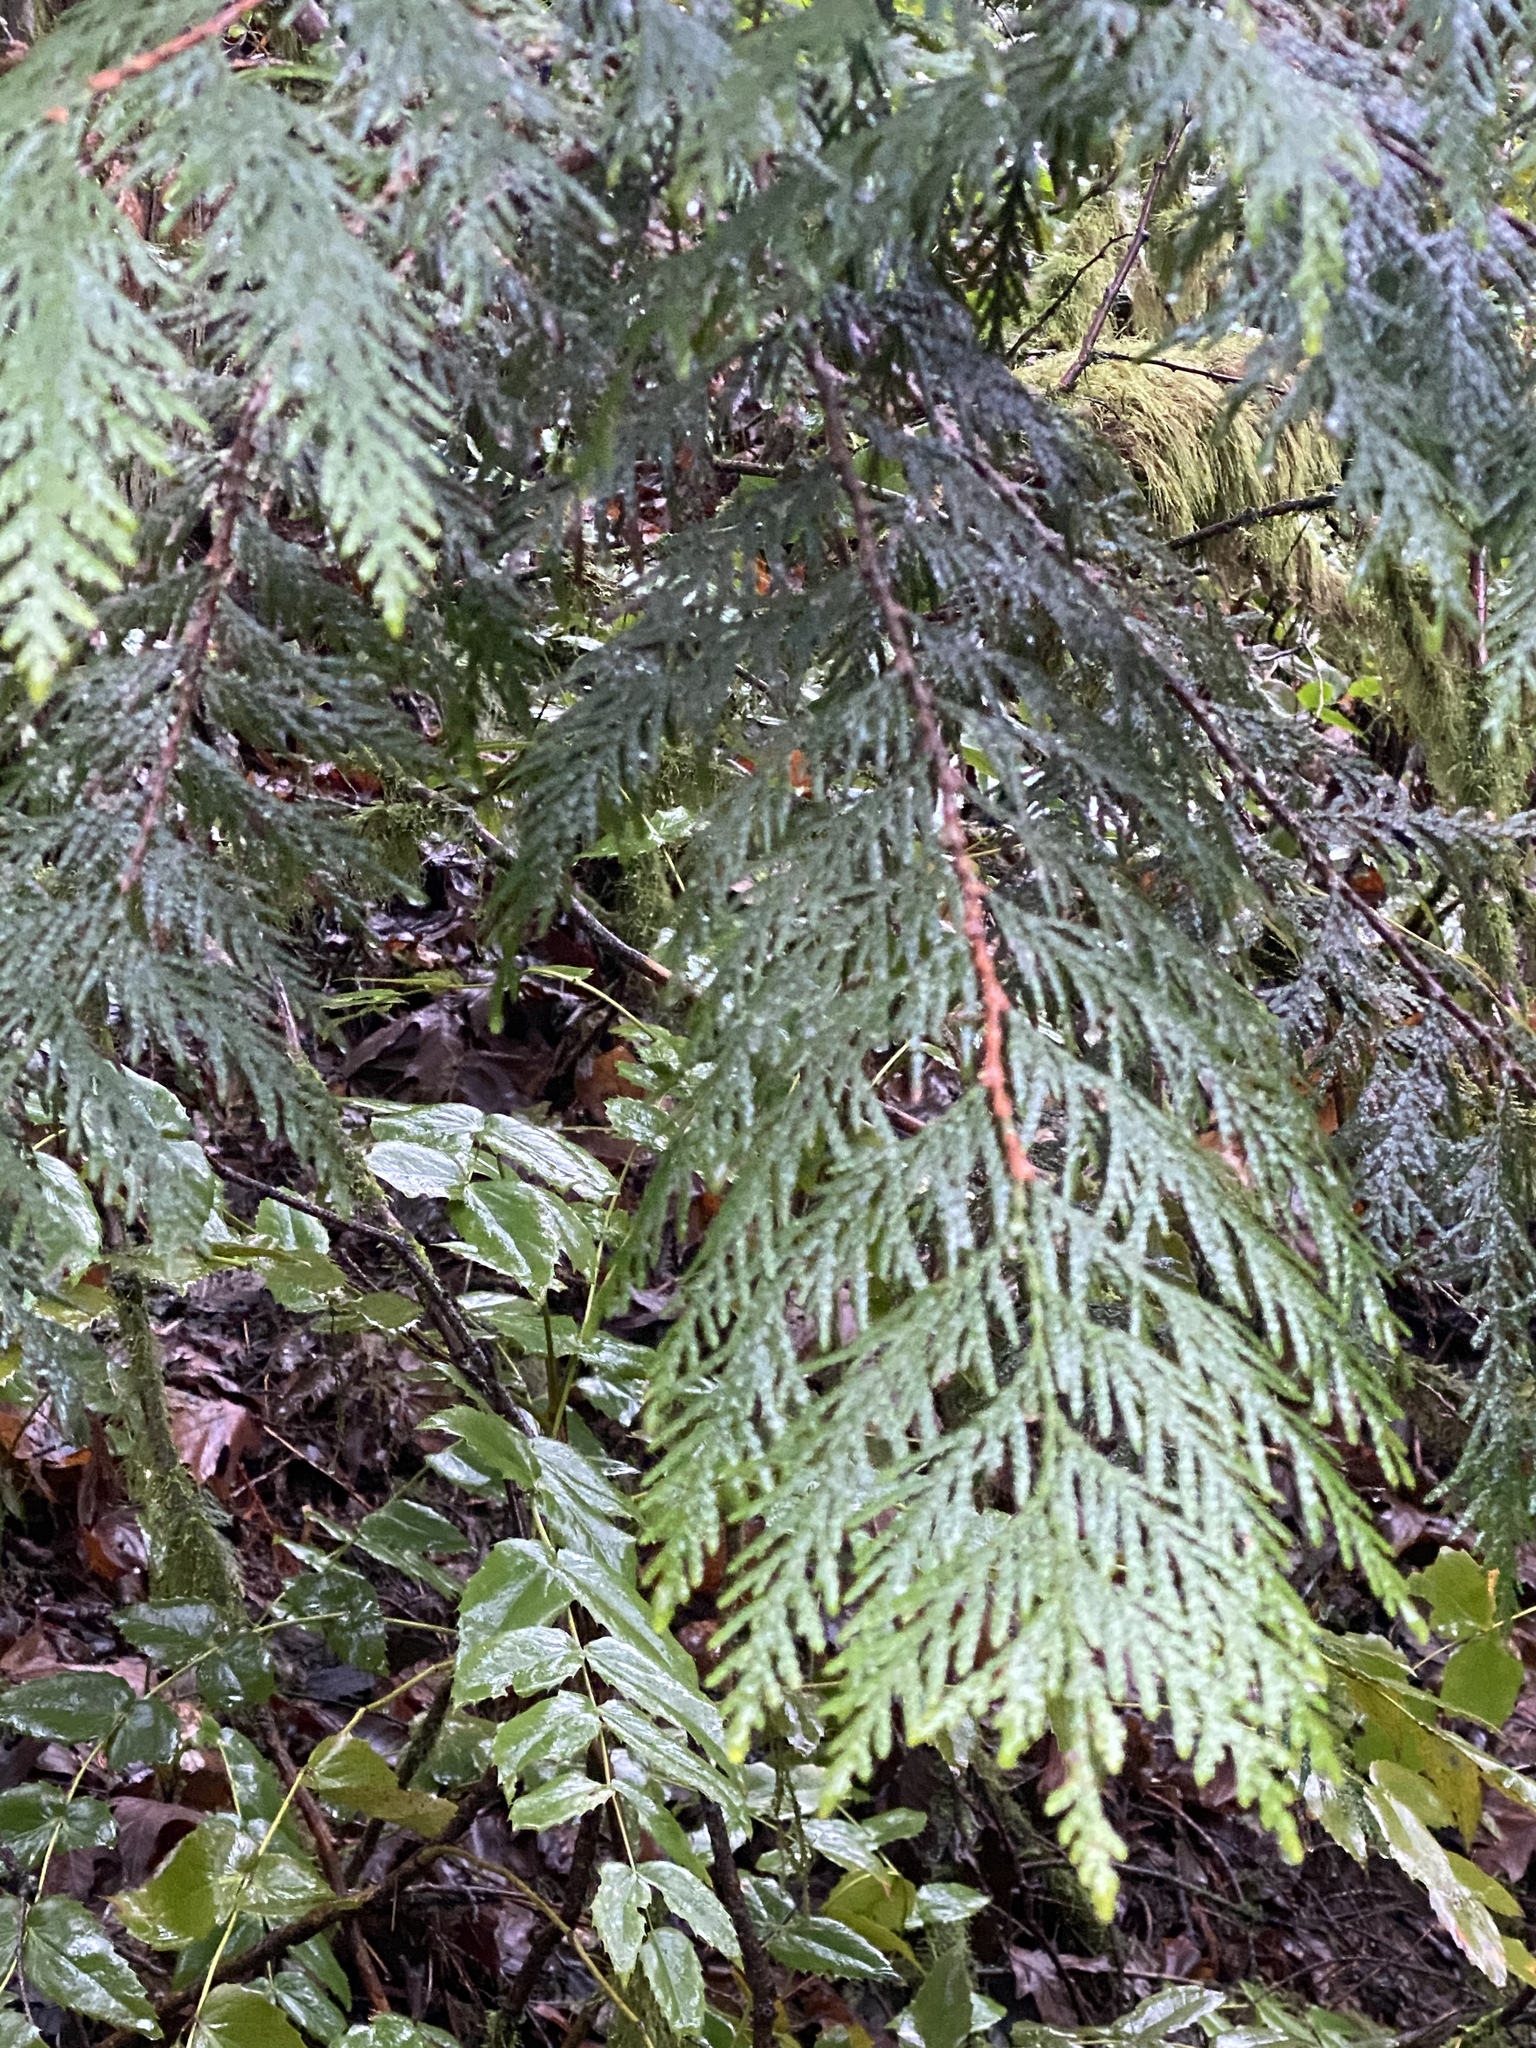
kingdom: Plantae
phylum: Tracheophyta
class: Pinopsida
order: Pinales
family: Cupressaceae
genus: Thuja
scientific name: Thuja plicata
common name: Western red-cedar
